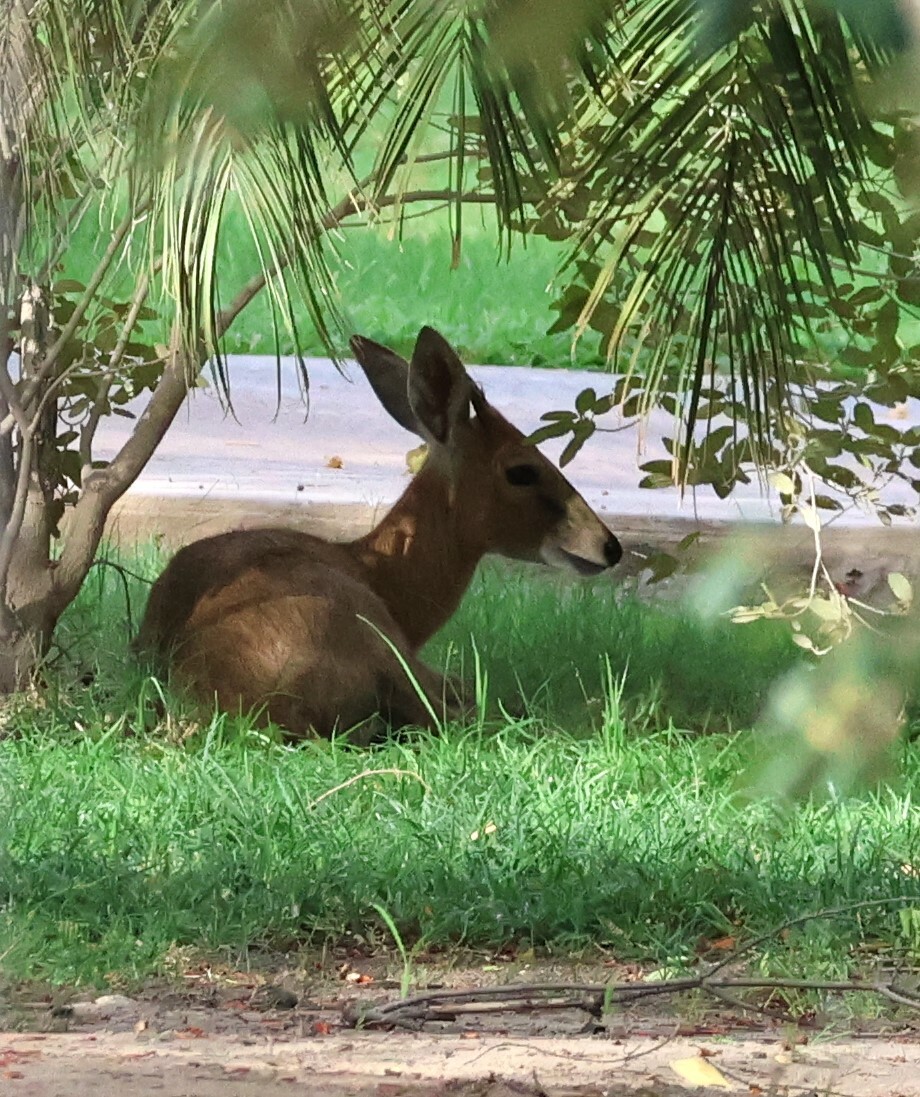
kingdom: Animalia
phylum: Chordata
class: Mammalia
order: Artiodactyla
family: Bovidae
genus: Sylvicapra
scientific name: Sylvicapra grimmia
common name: Bush duiker
